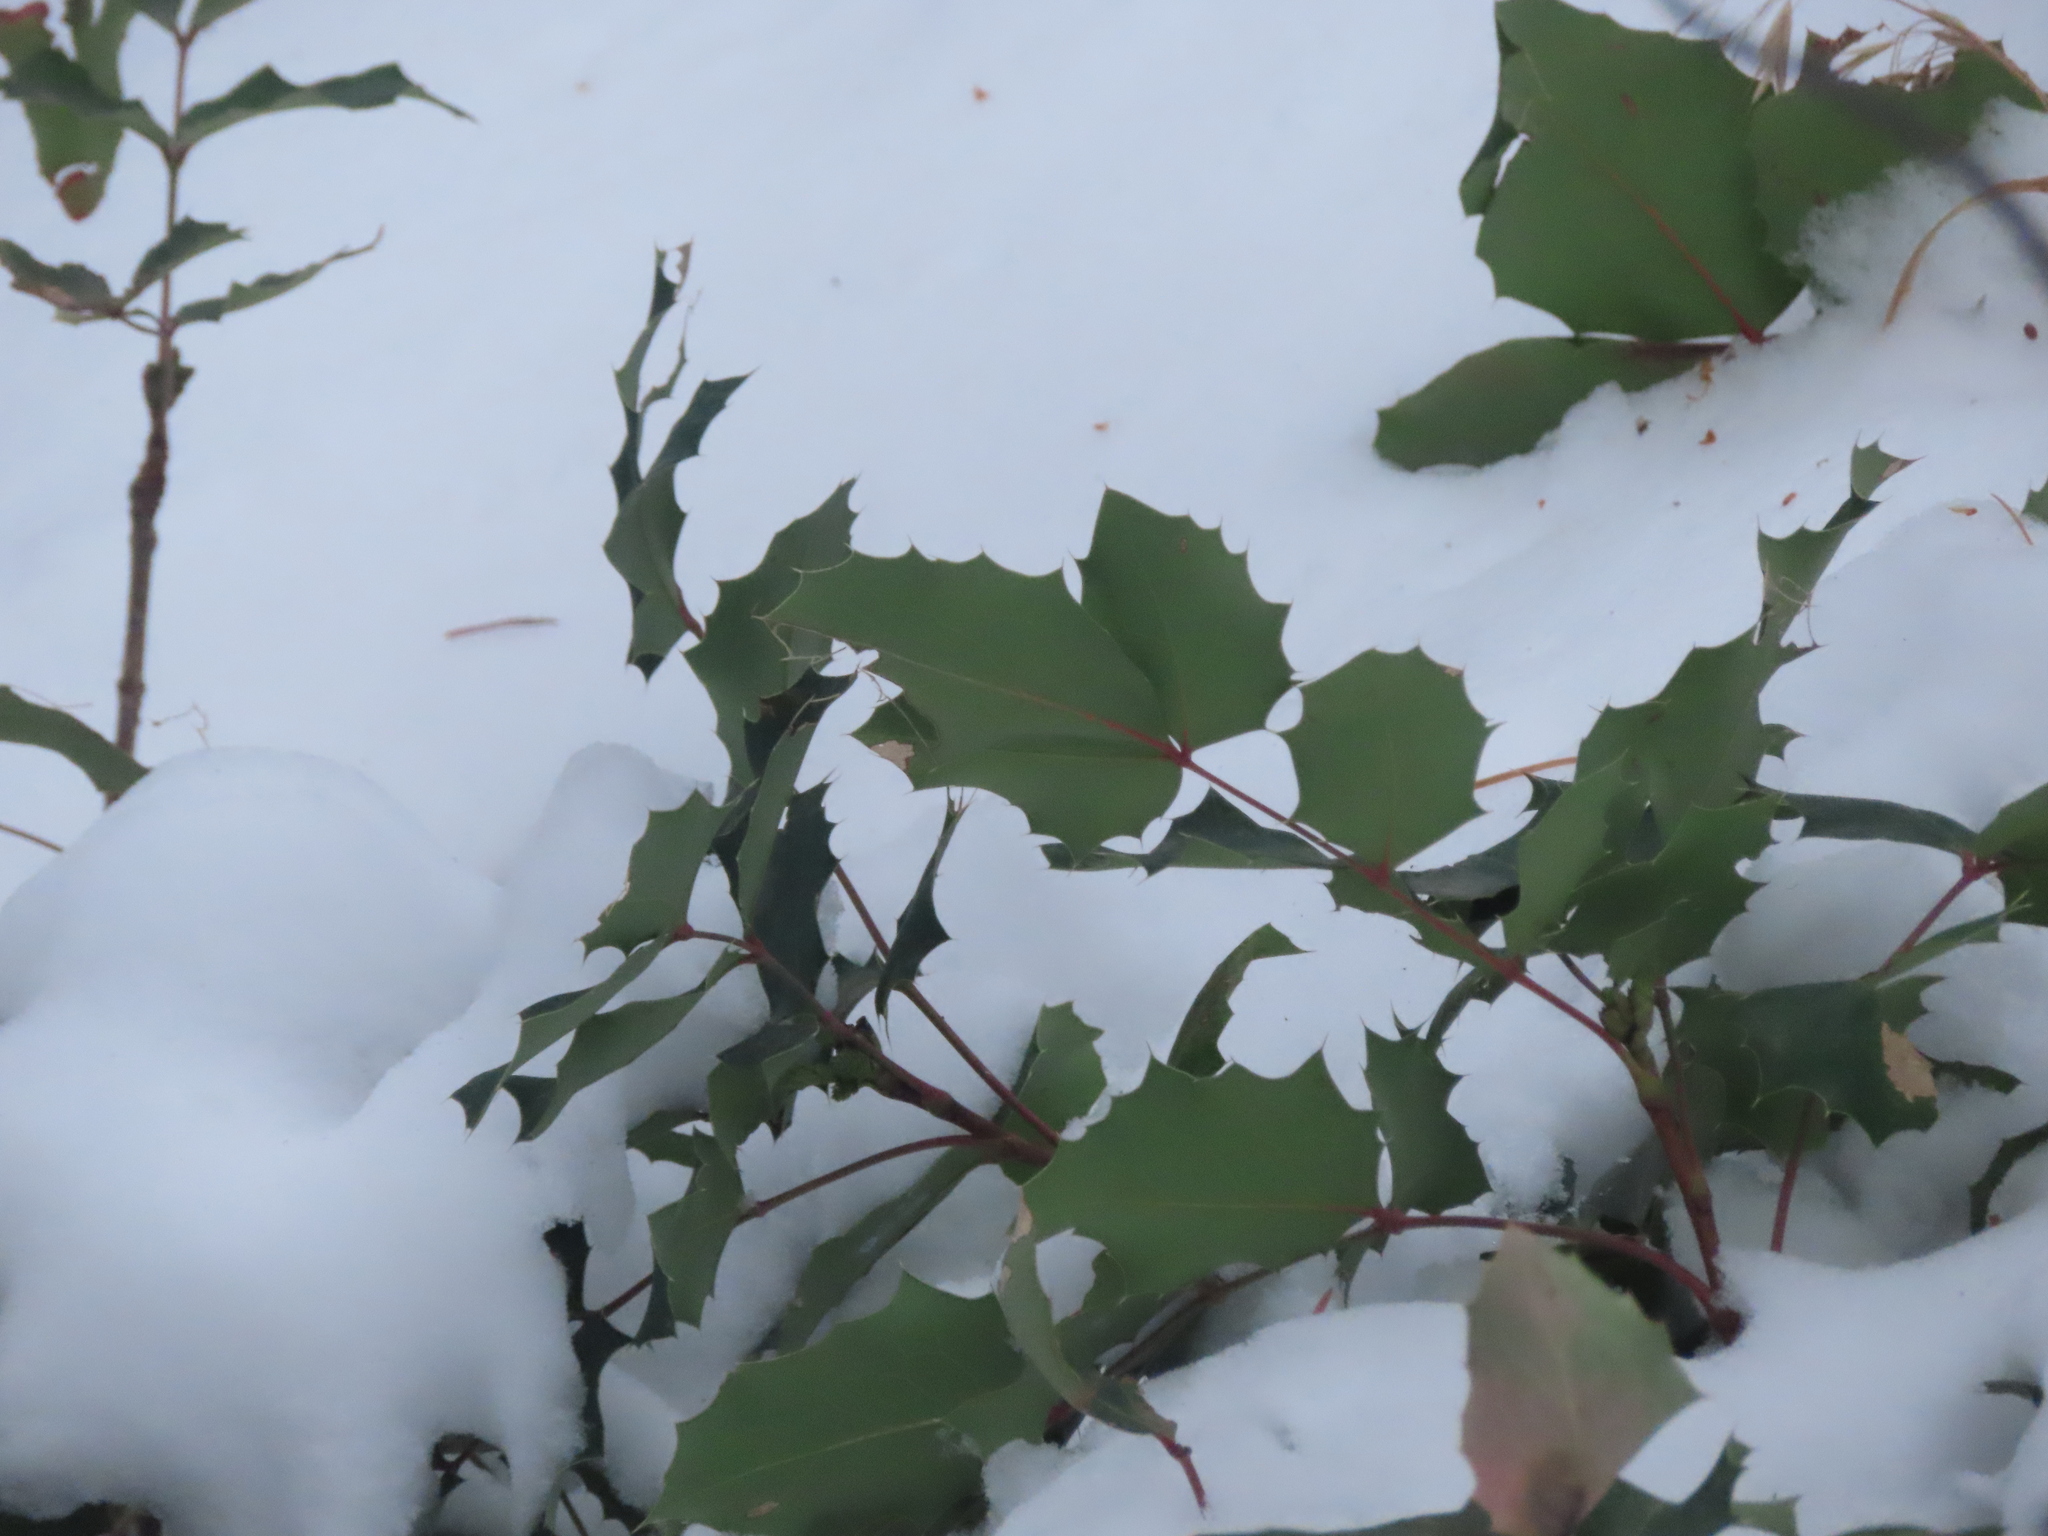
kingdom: Plantae
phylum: Tracheophyta
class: Magnoliopsida
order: Ranunculales
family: Berberidaceae
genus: Mahonia
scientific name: Mahonia repens
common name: Creeping oregon-grape
